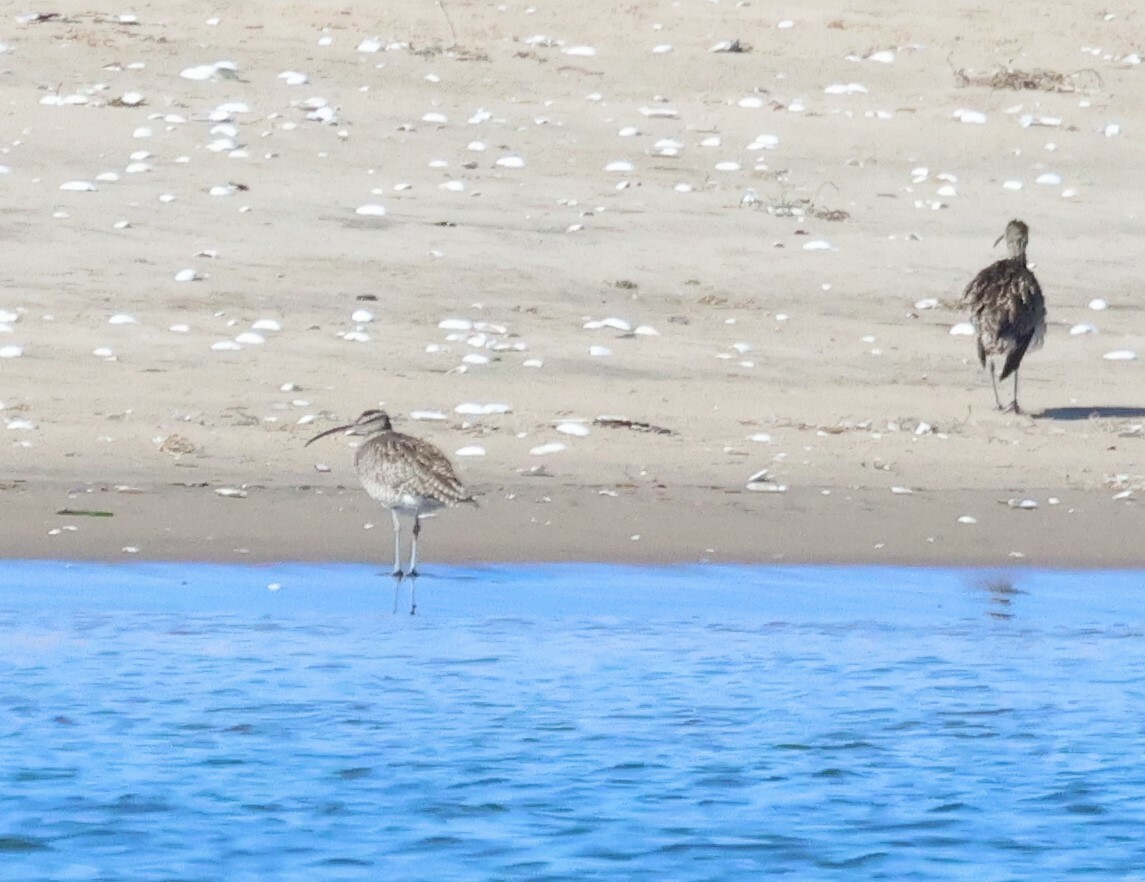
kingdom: Animalia
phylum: Chordata
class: Aves
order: Charadriiformes
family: Scolopacidae
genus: Numenius
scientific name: Numenius phaeopus
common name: Whimbrel
